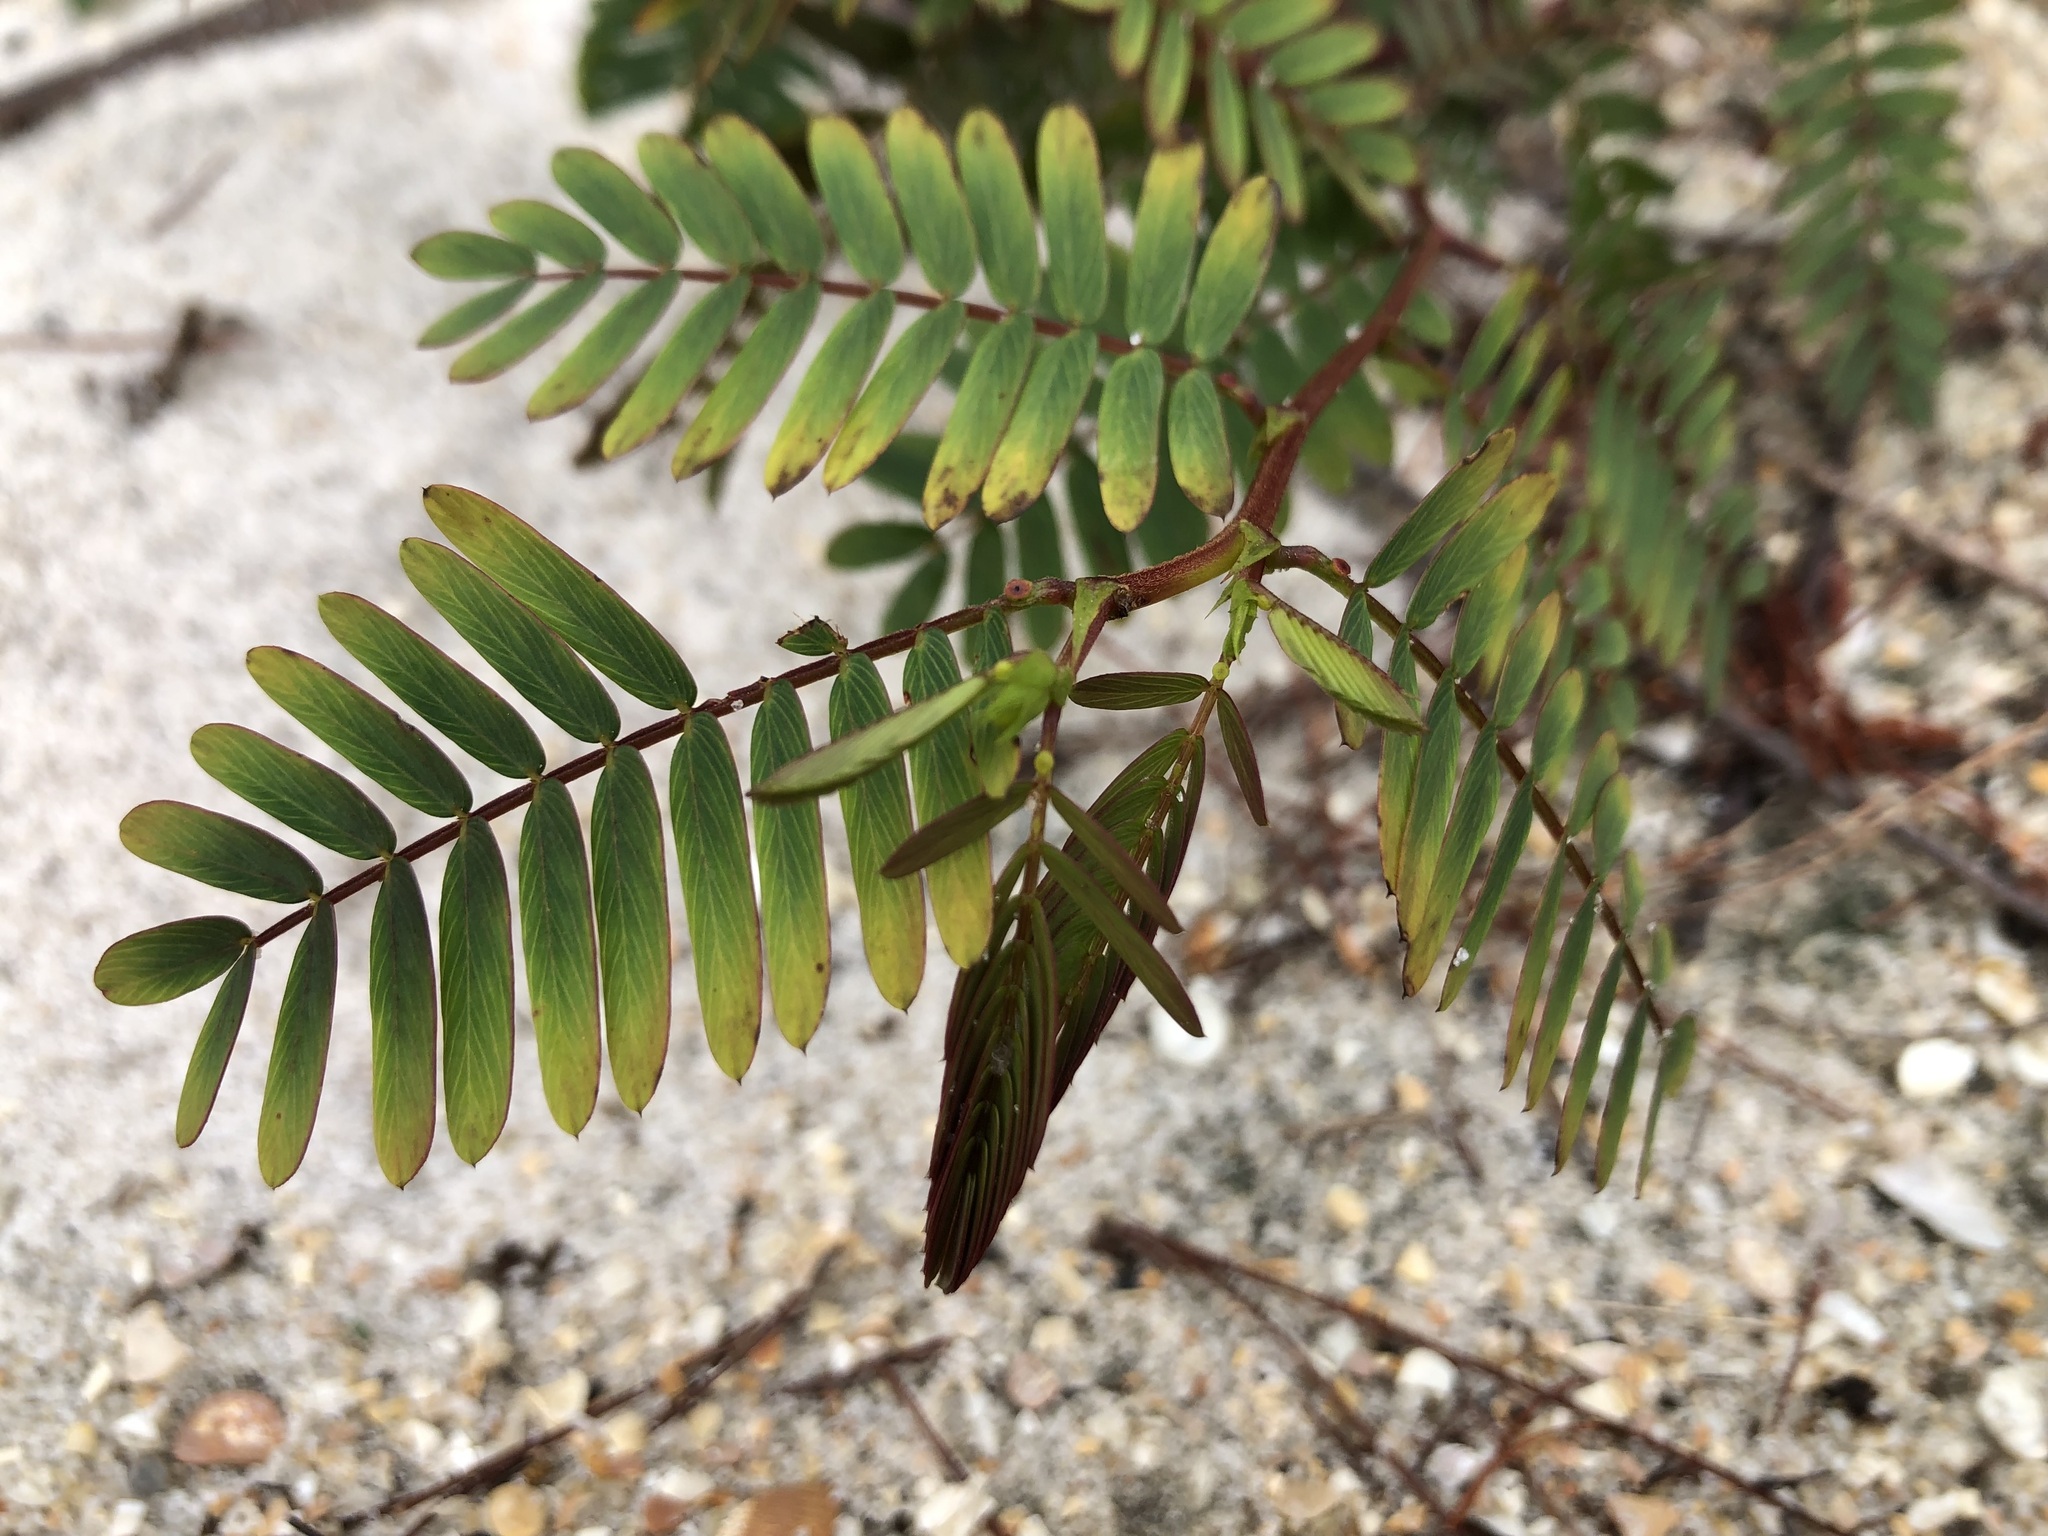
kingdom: Plantae
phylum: Tracheophyta
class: Magnoliopsida
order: Fabales
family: Fabaceae
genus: Chamaecrista
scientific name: Chamaecrista fasciculata
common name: Golden cassia
